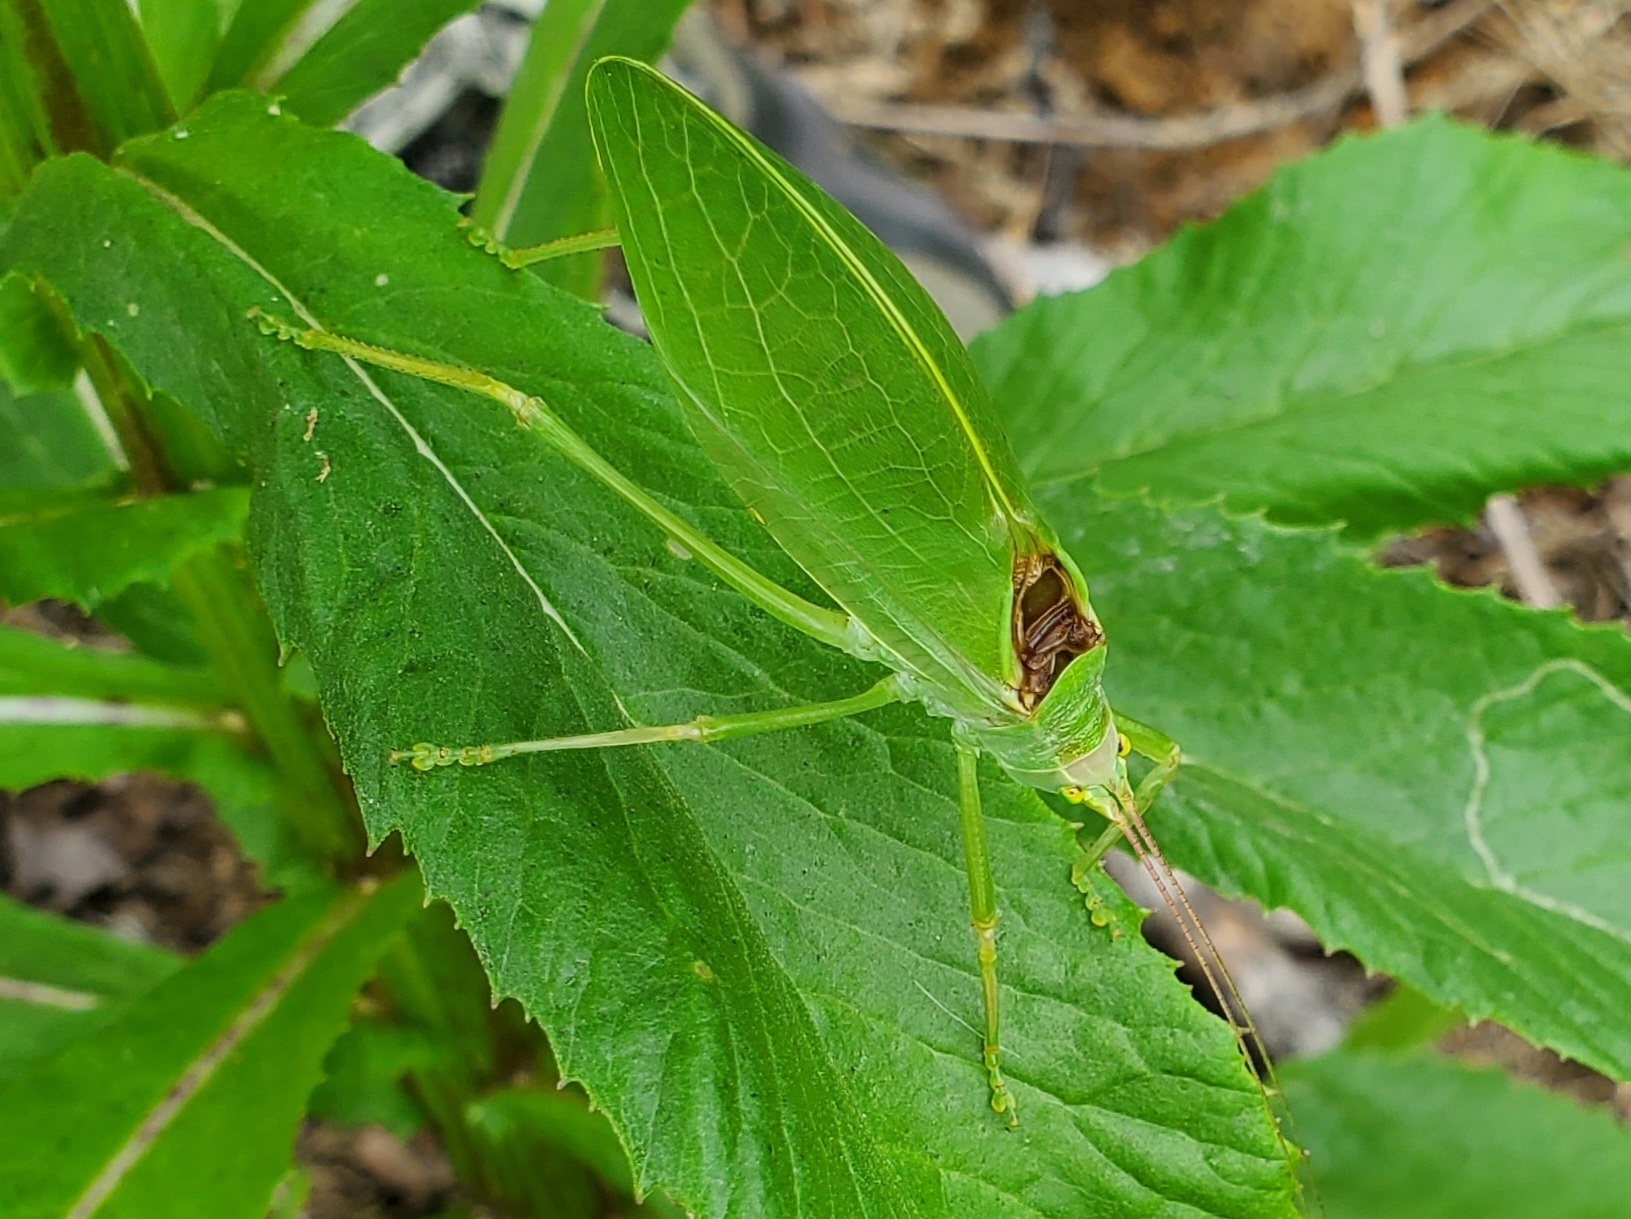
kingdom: Animalia
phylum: Arthropoda
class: Insecta
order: Orthoptera
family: Tettigoniidae
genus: Pterophylla
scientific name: Pterophylla camellifolia
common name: Common true katydid
